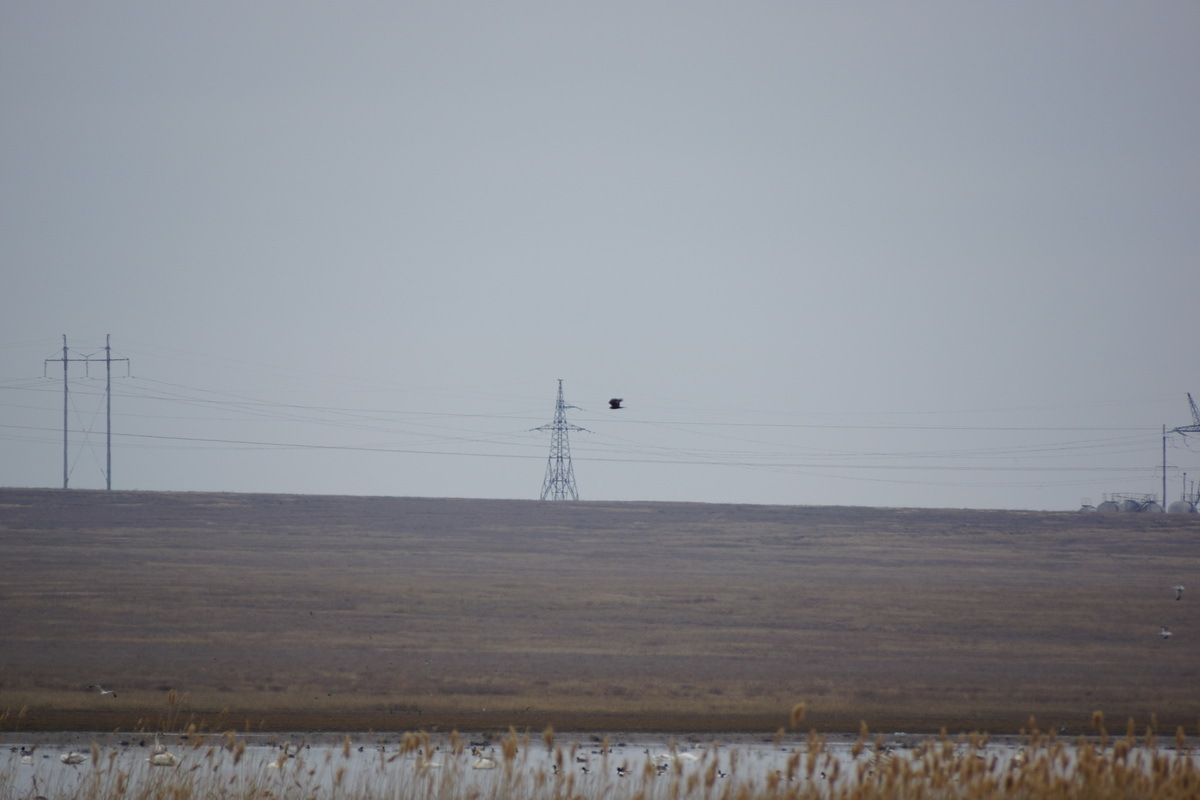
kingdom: Animalia
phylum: Chordata
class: Aves
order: Accipitriformes
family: Accipitridae
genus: Circus
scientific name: Circus aeruginosus
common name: Western marsh harrier
